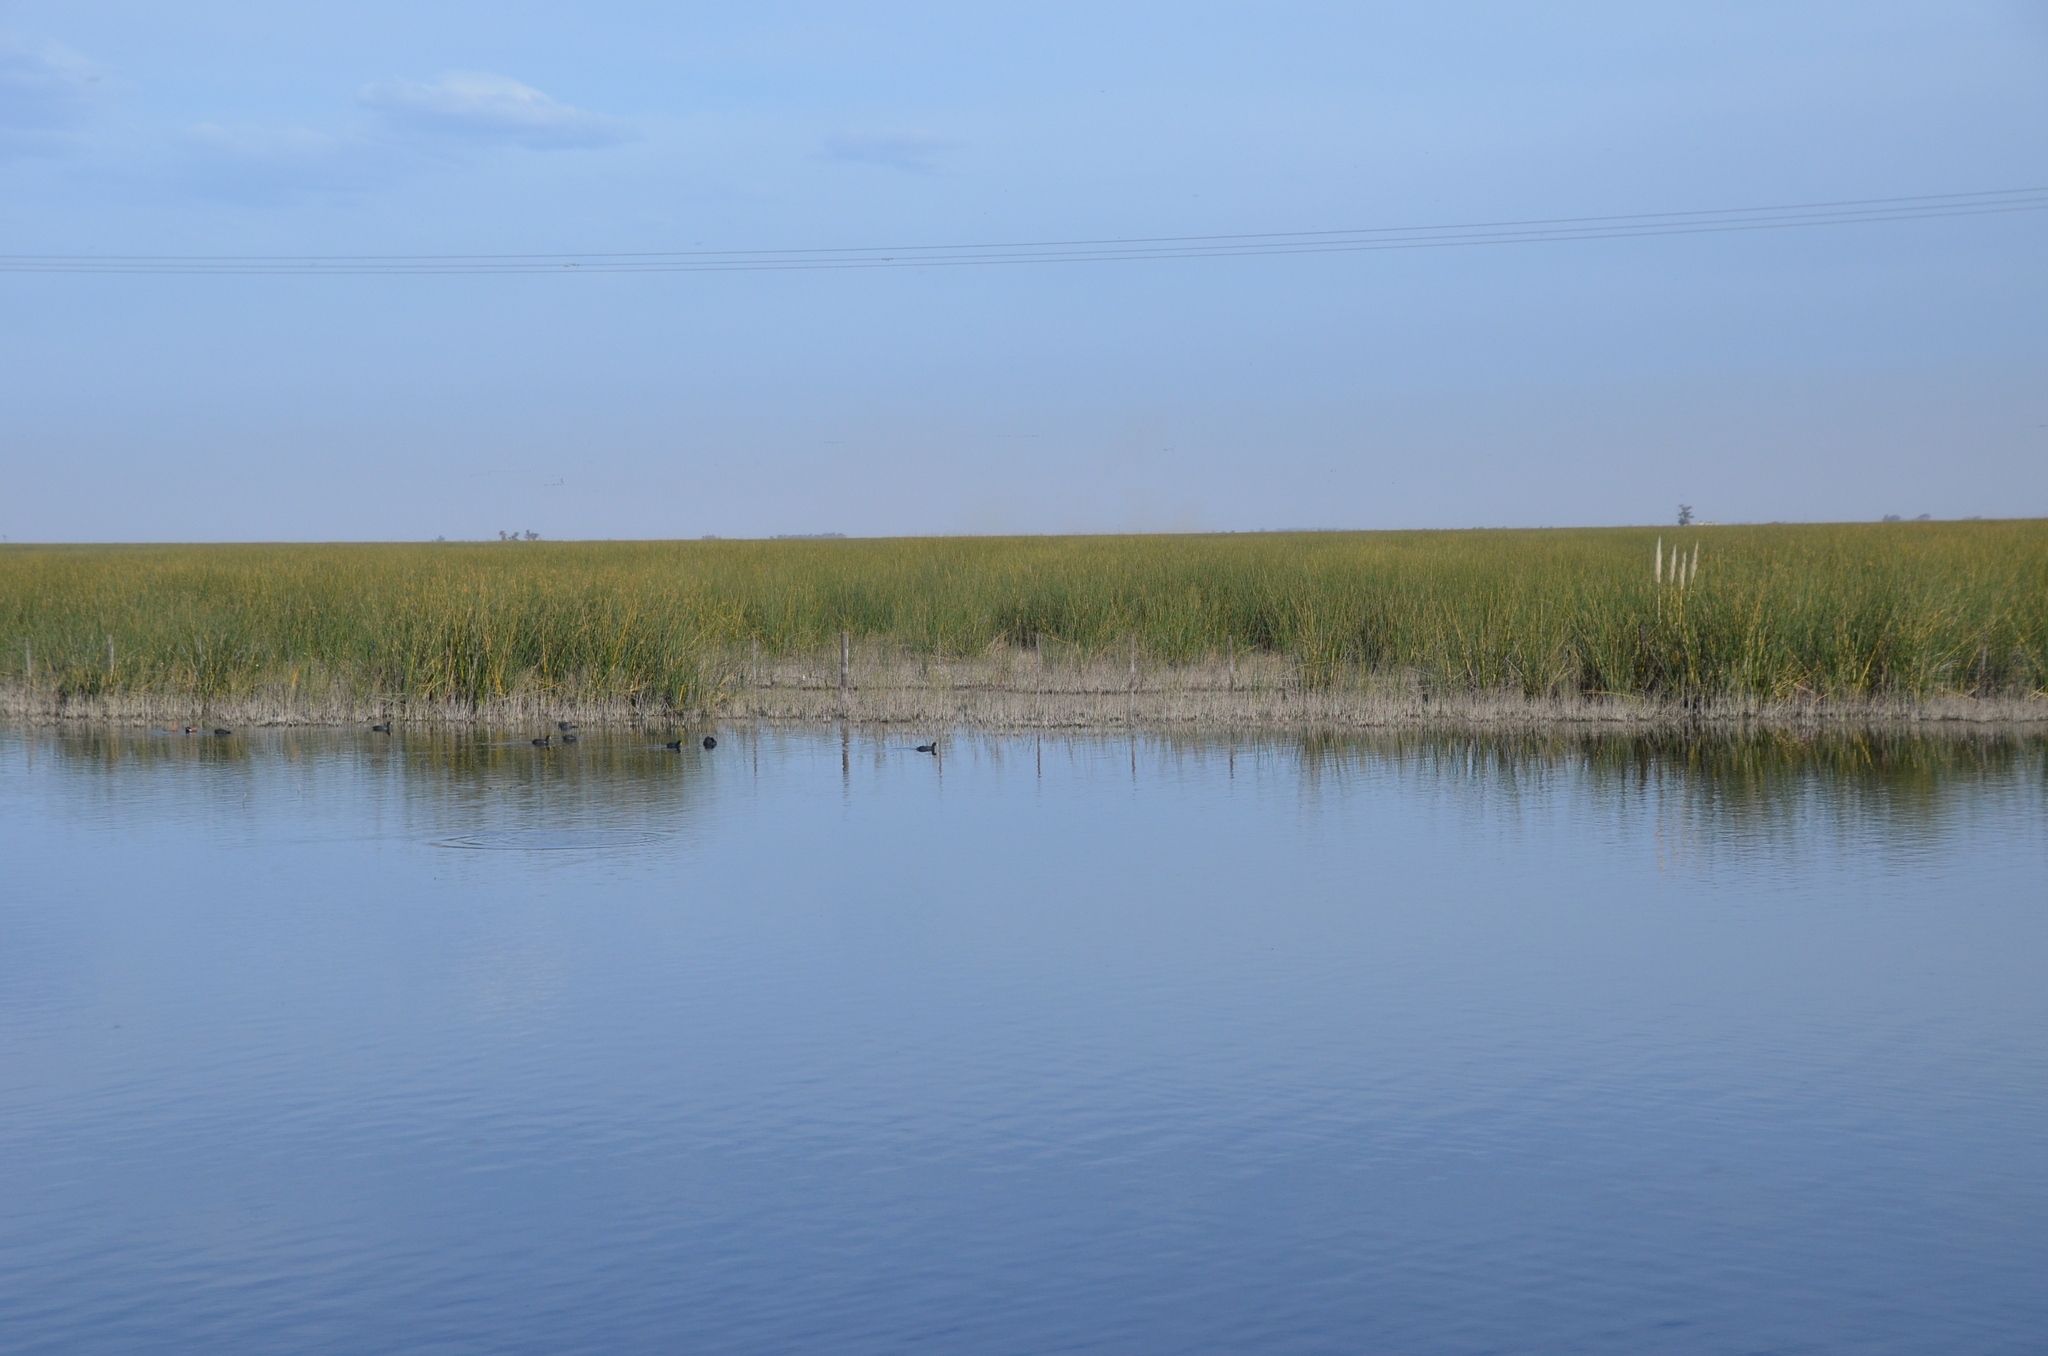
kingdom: Animalia
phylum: Chordata
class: Aves
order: Gruiformes
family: Rallidae
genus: Fulica
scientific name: Fulica leucoptera
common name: White-winged coot
